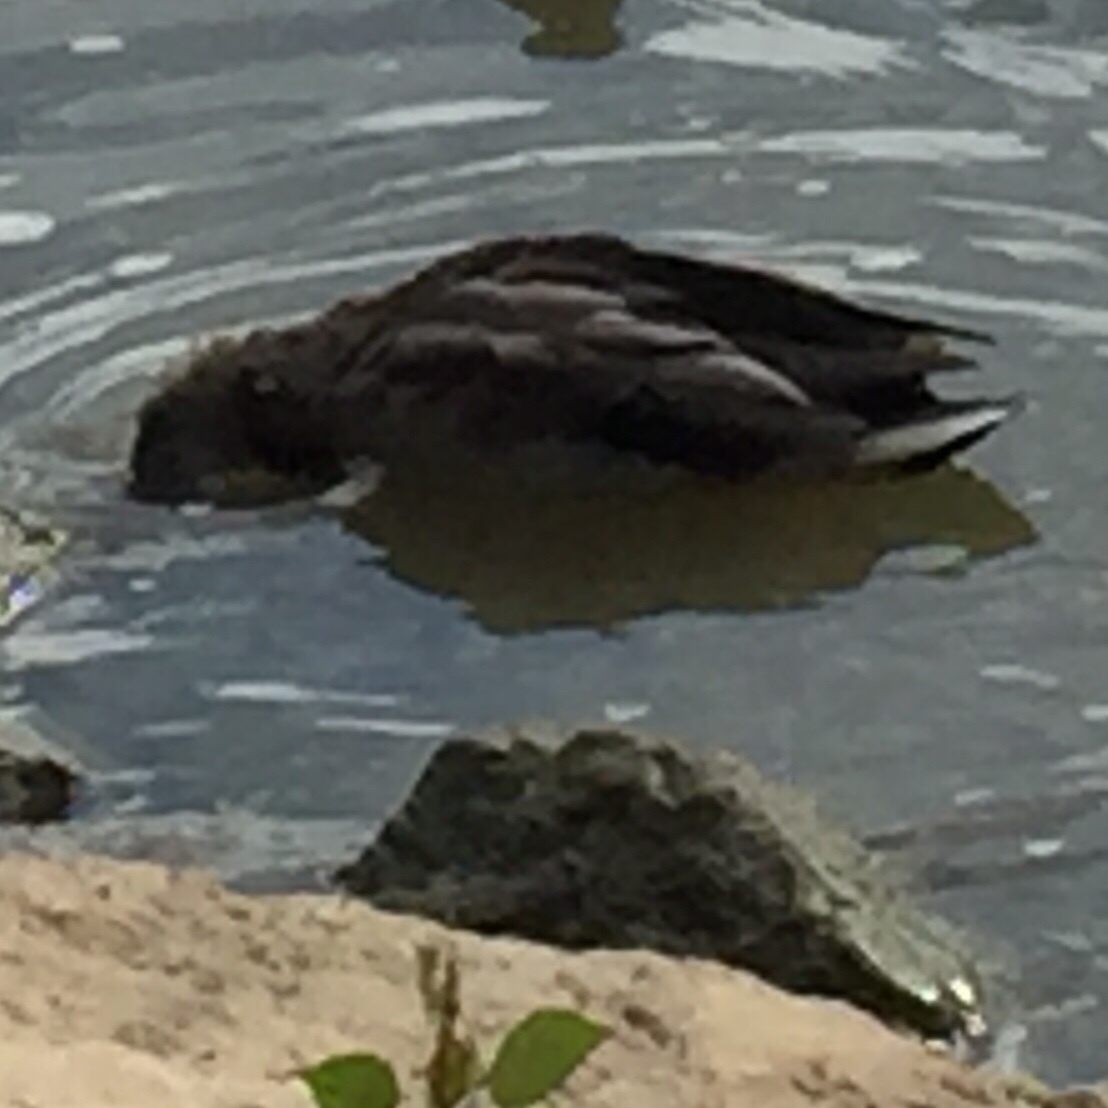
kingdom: Animalia
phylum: Chordata
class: Aves
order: Anseriformes
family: Anatidae
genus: Anas
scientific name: Anas platyrhynchos
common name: Mallard
